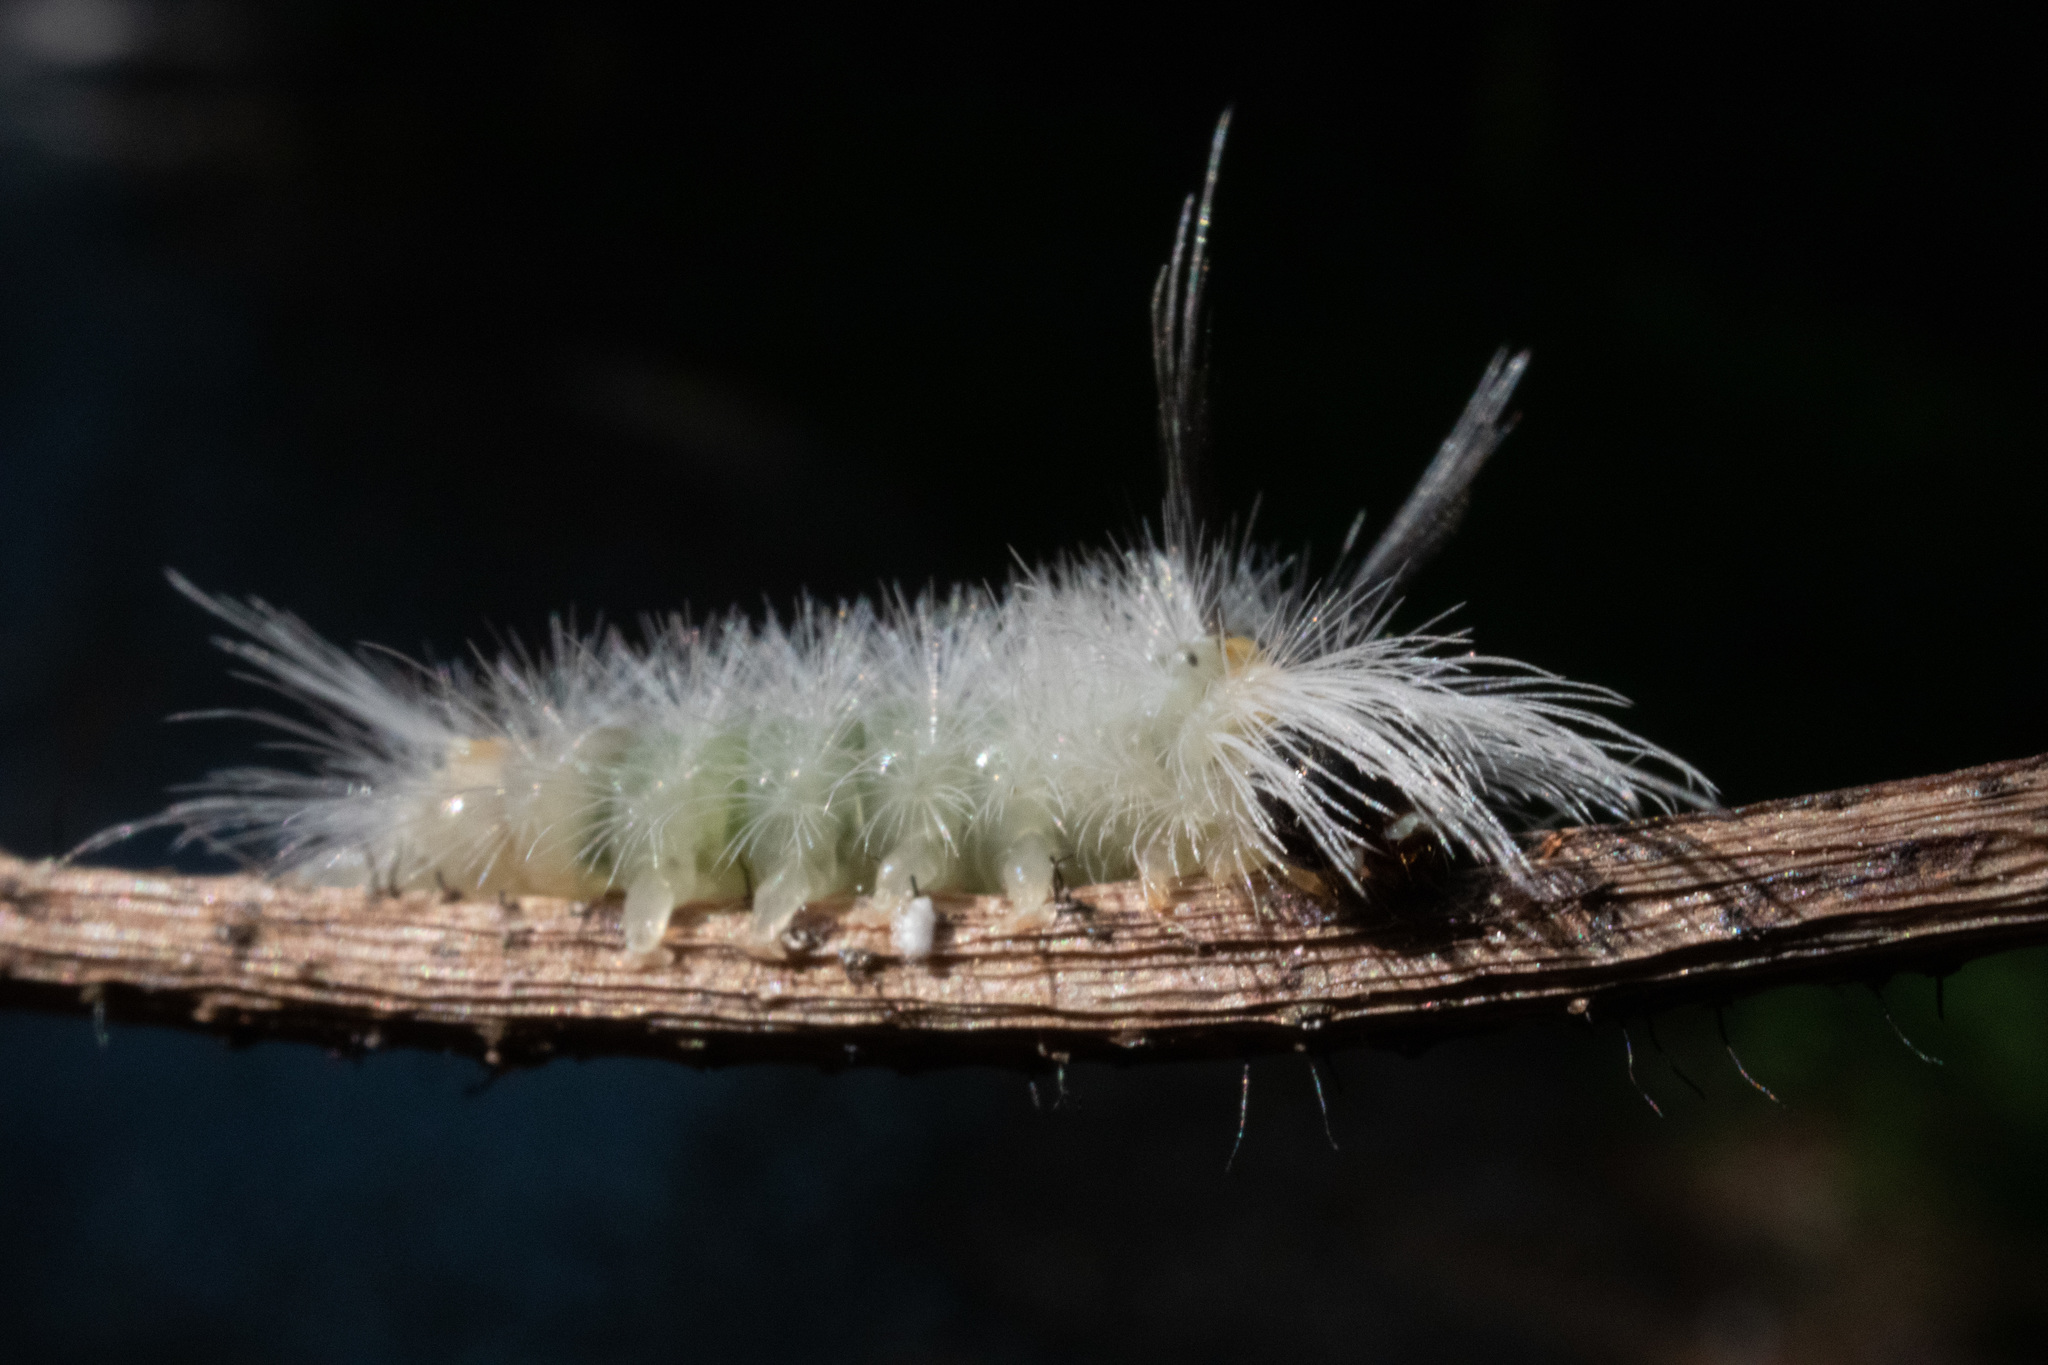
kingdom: Animalia
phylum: Arthropoda
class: Insecta
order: Lepidoptera
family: Erebidae
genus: Halysidota
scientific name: Halysidota tessellaris
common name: Banded tussock moth
